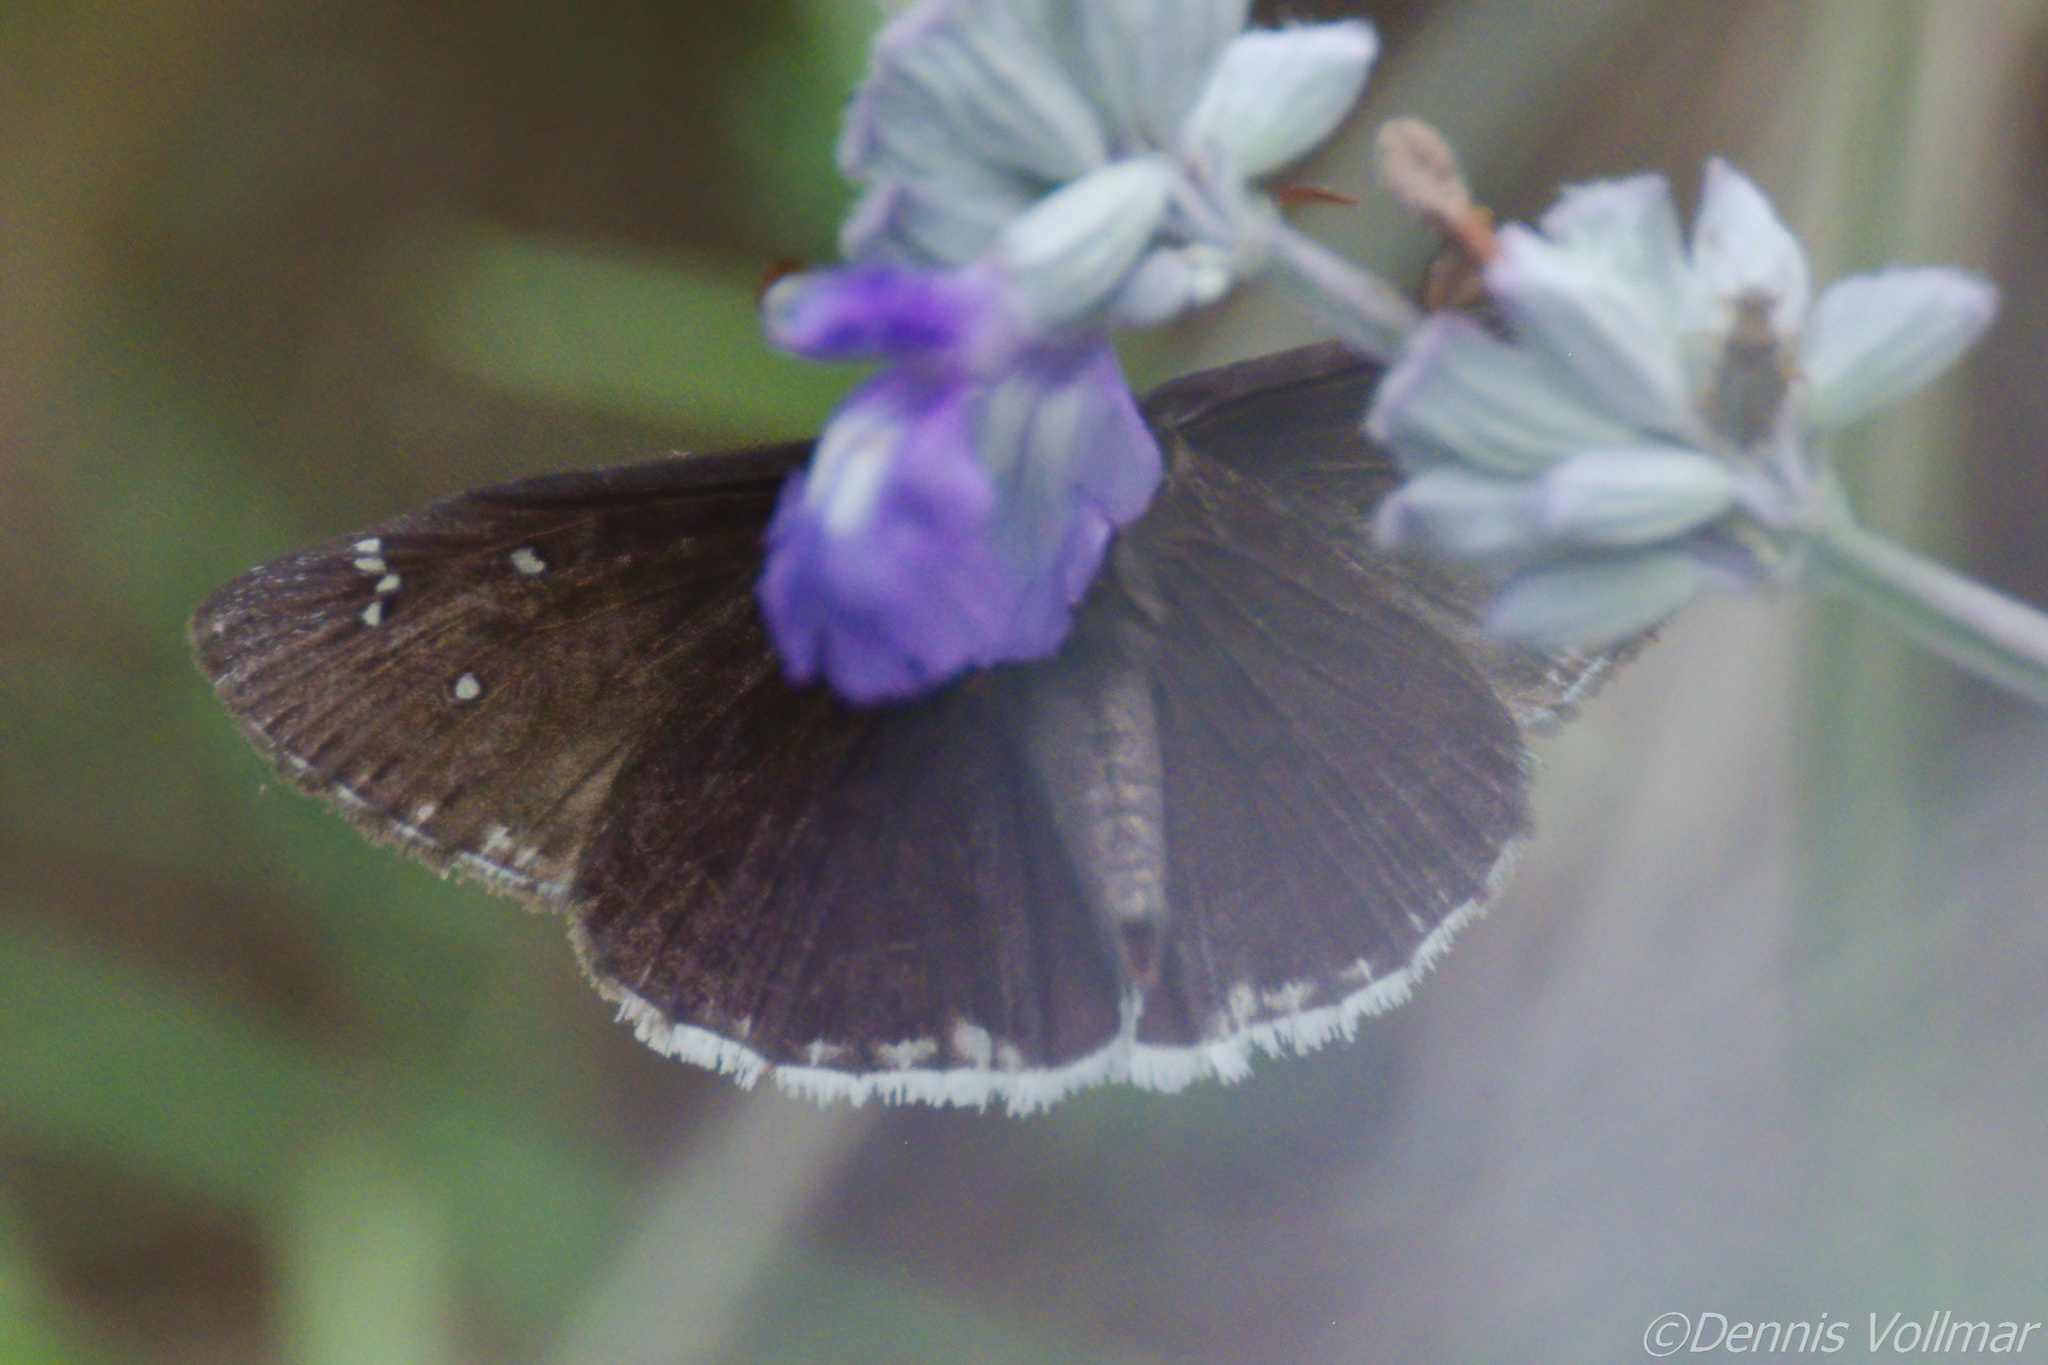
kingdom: Animalia
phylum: Arthropoda
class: Insecta
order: Lepidoptera
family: Hesperiidae
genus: Erynnis
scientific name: Erynnis tristis
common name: Mournful duskywing
